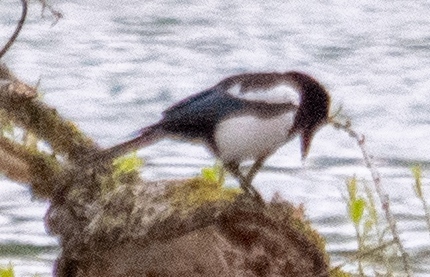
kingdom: Animalia
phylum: Chordata
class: Aves
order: Passeriformes
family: Corvidae
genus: Pica
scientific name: Pica pica
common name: Eurasian magpie
